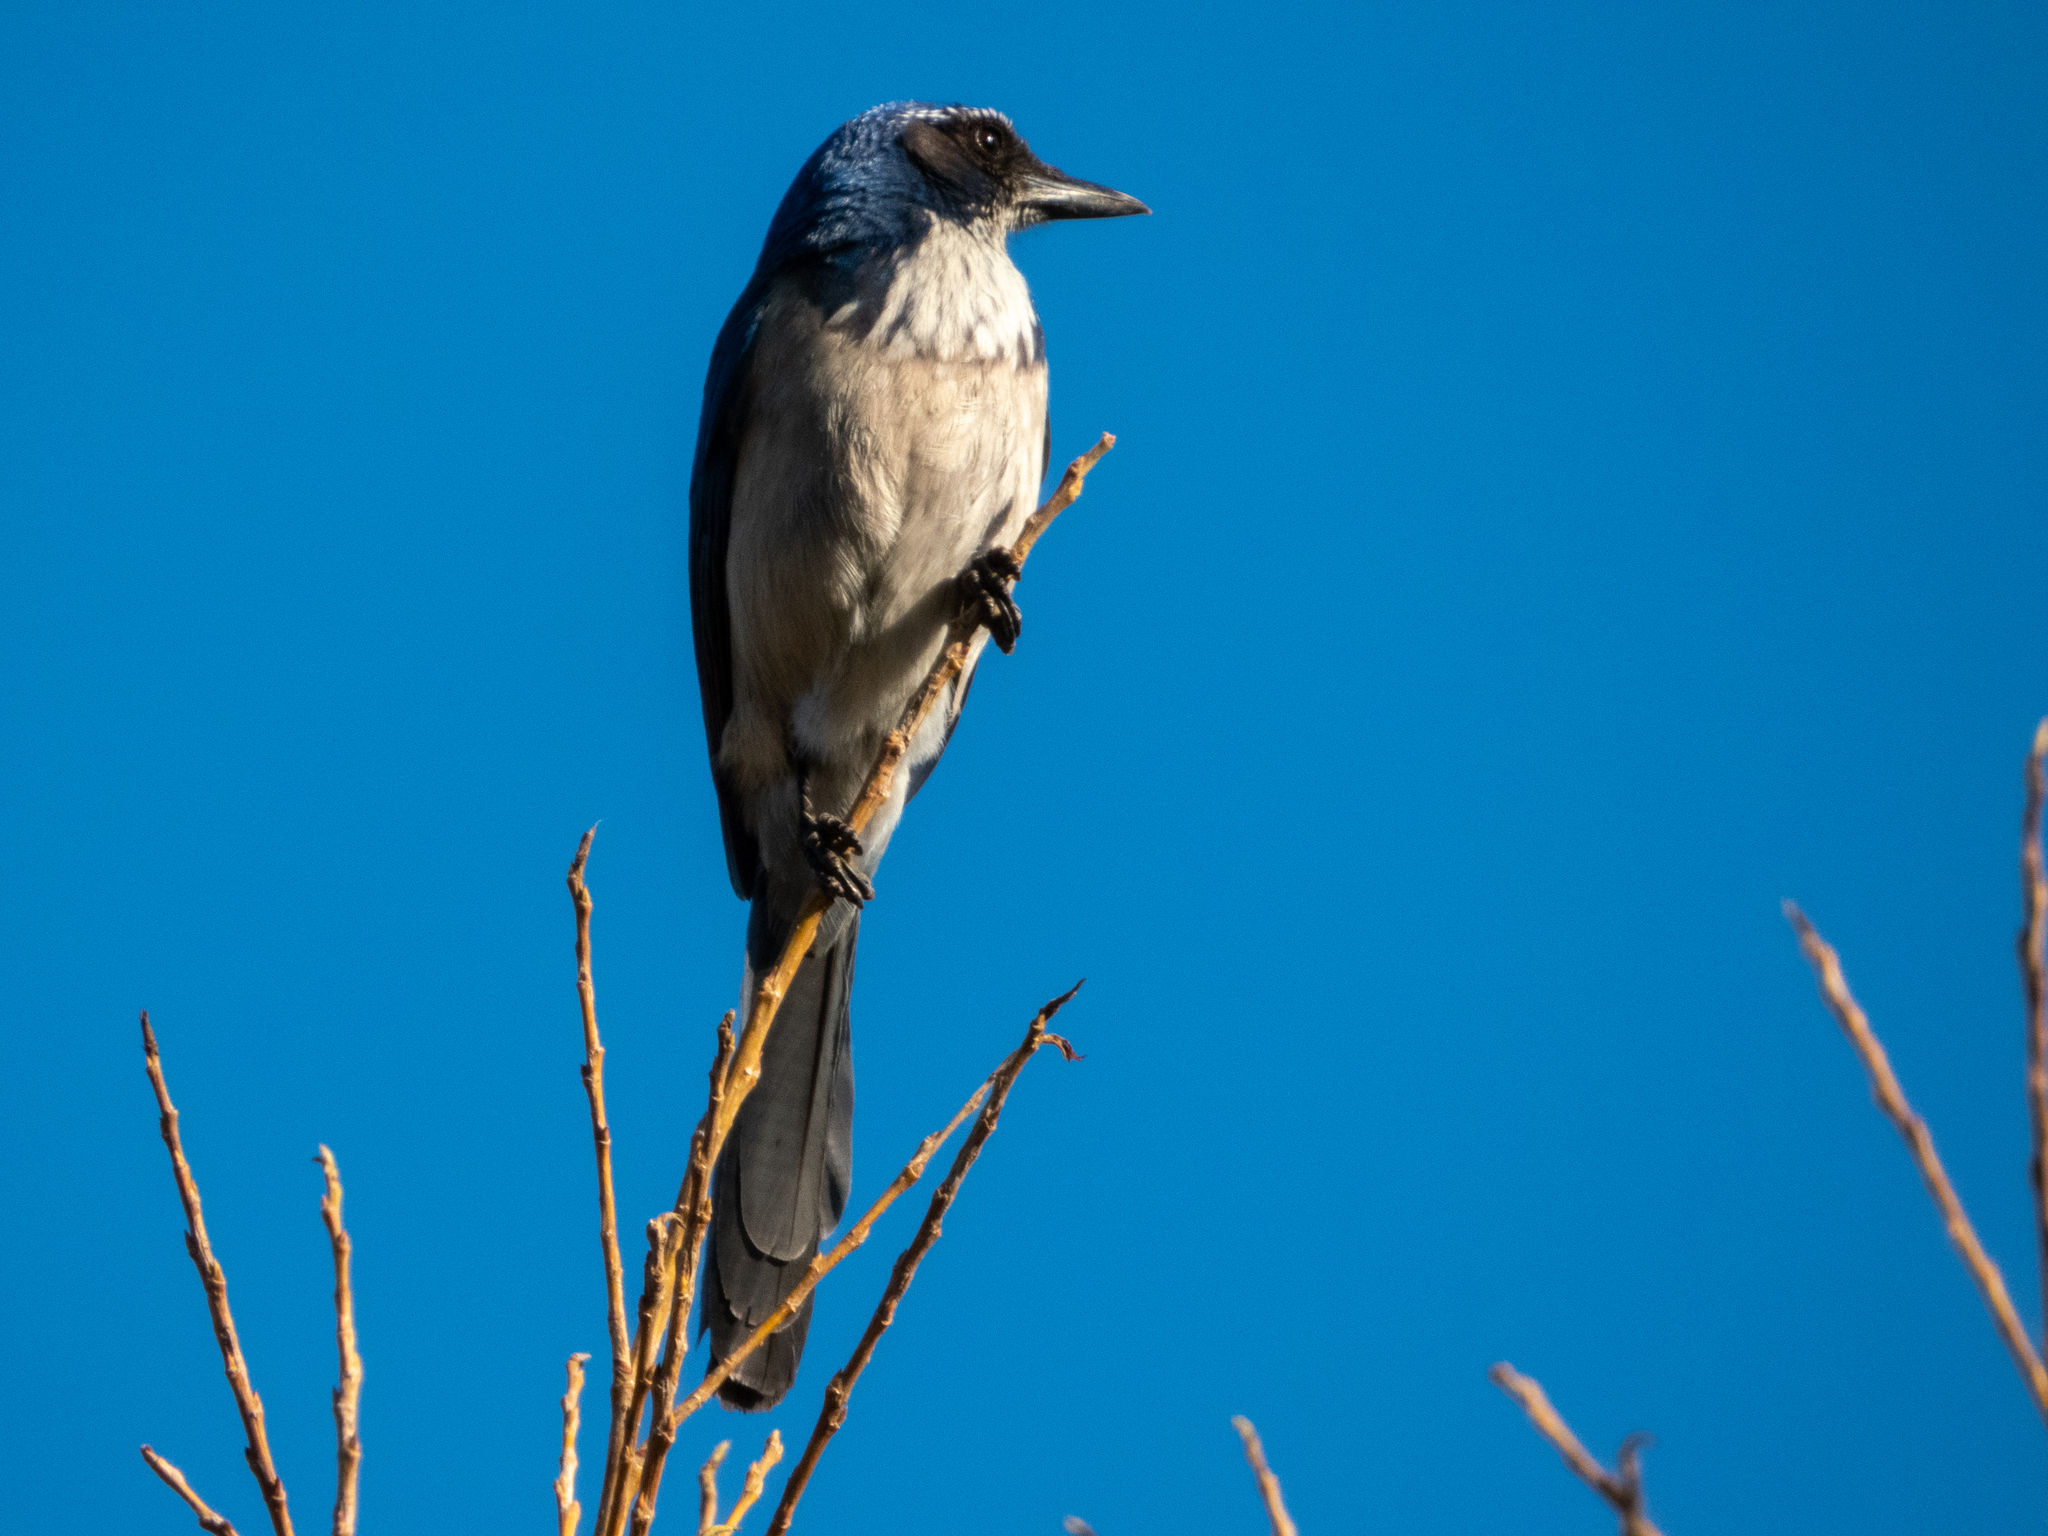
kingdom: Animalia
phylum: Chordata
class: Aves
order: Passeriformes
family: Corvidae
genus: Aphelocoma
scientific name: Aphelocoma californica
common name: California scrub-jay
